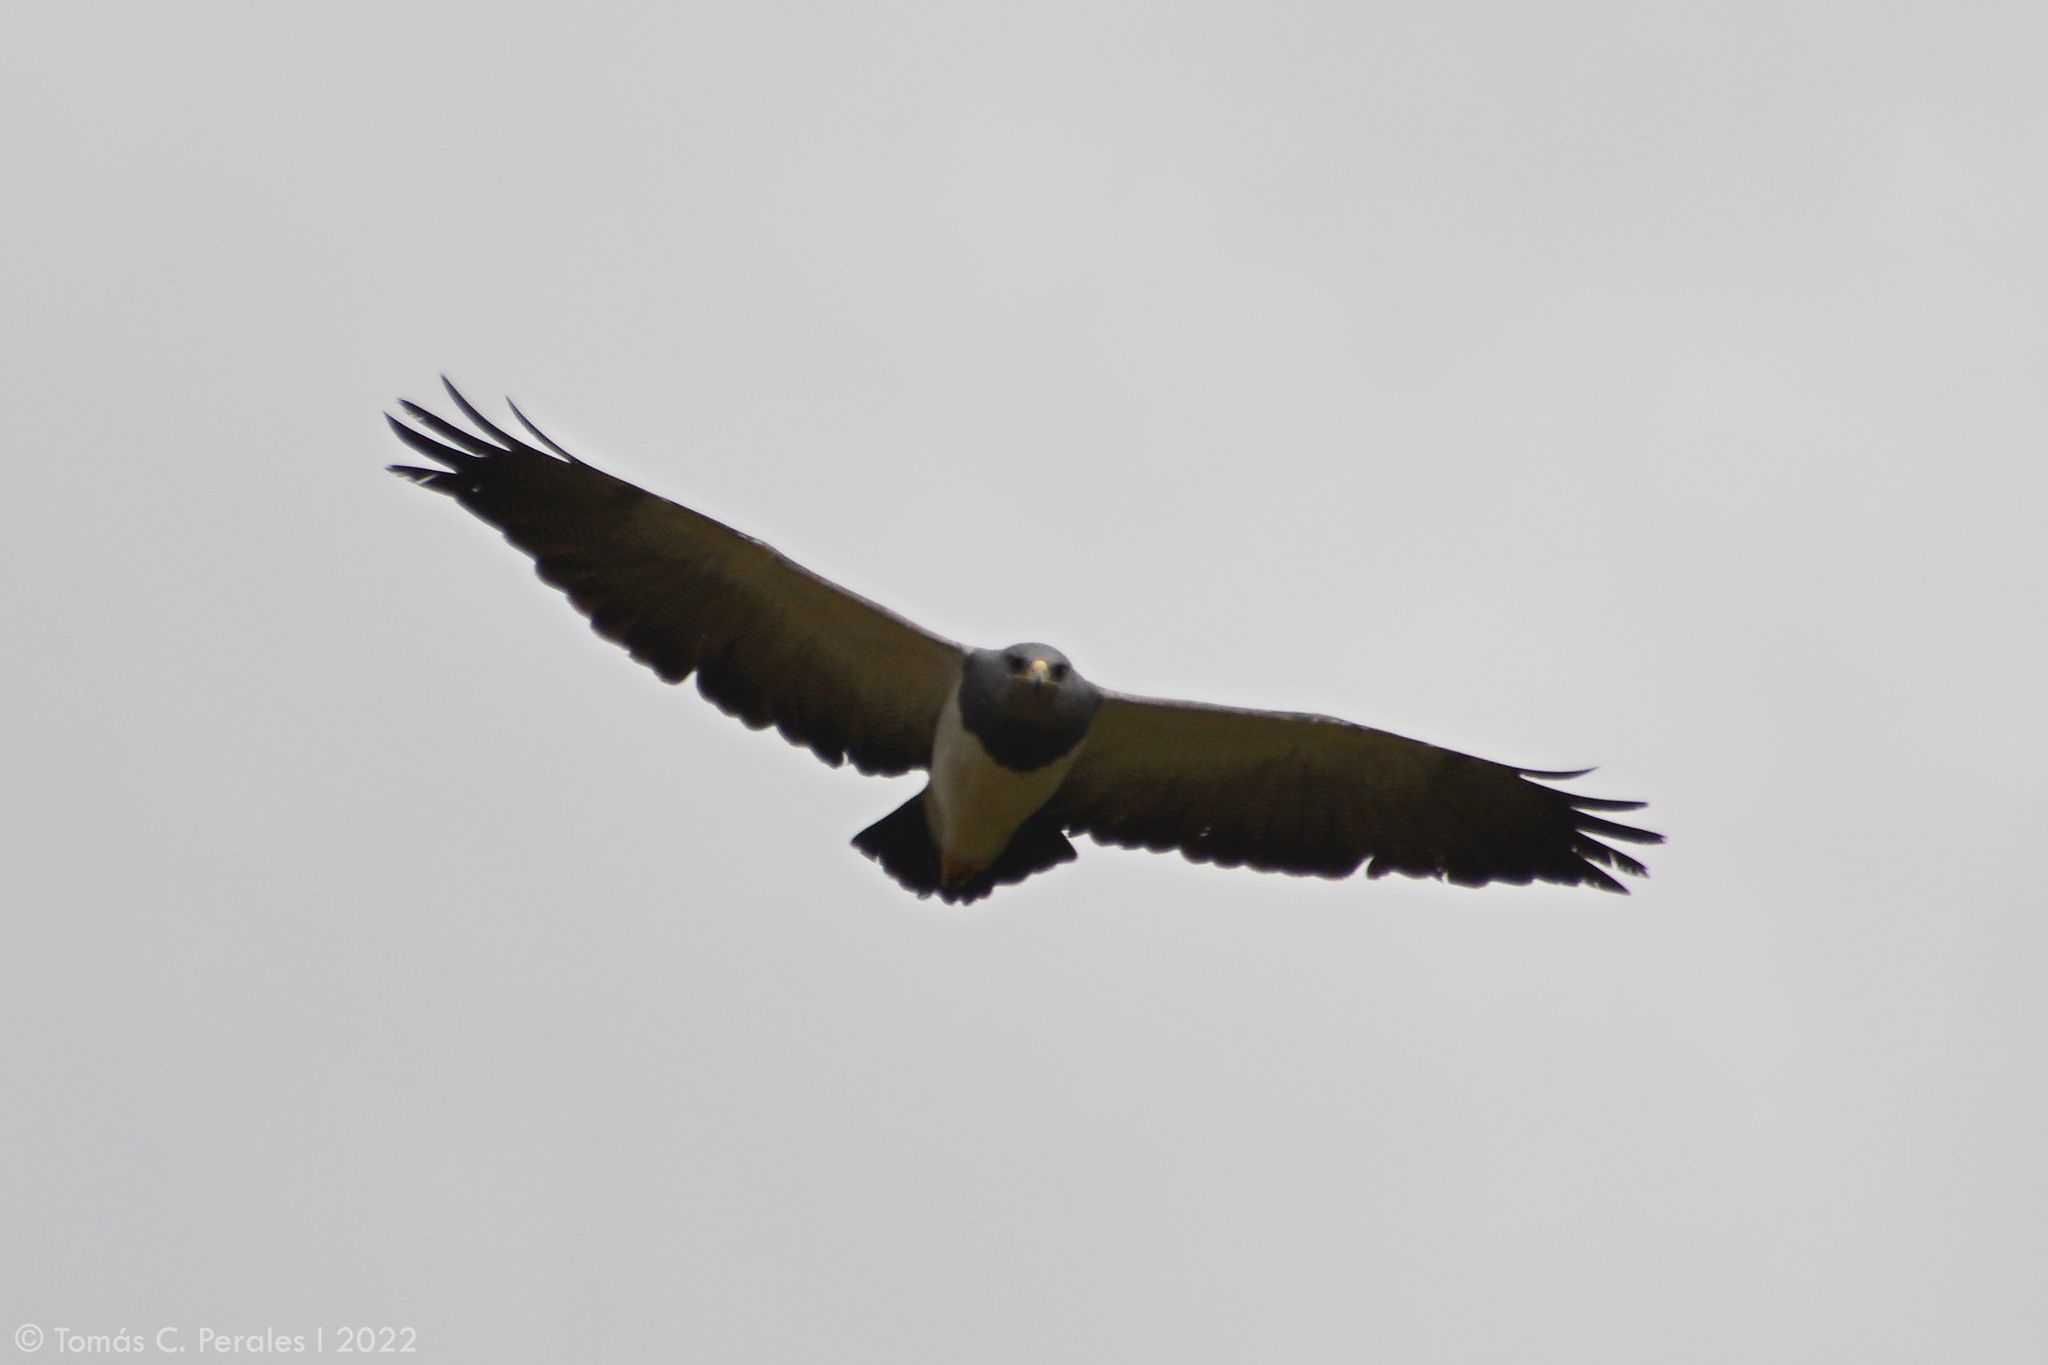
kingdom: Animalia
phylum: Chordata
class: Aves
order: Accipitriformes
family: Accipitridae
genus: Geranoaetus
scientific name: Geranoaetus melanoleucus
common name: Black-chested buzzard-eagle
